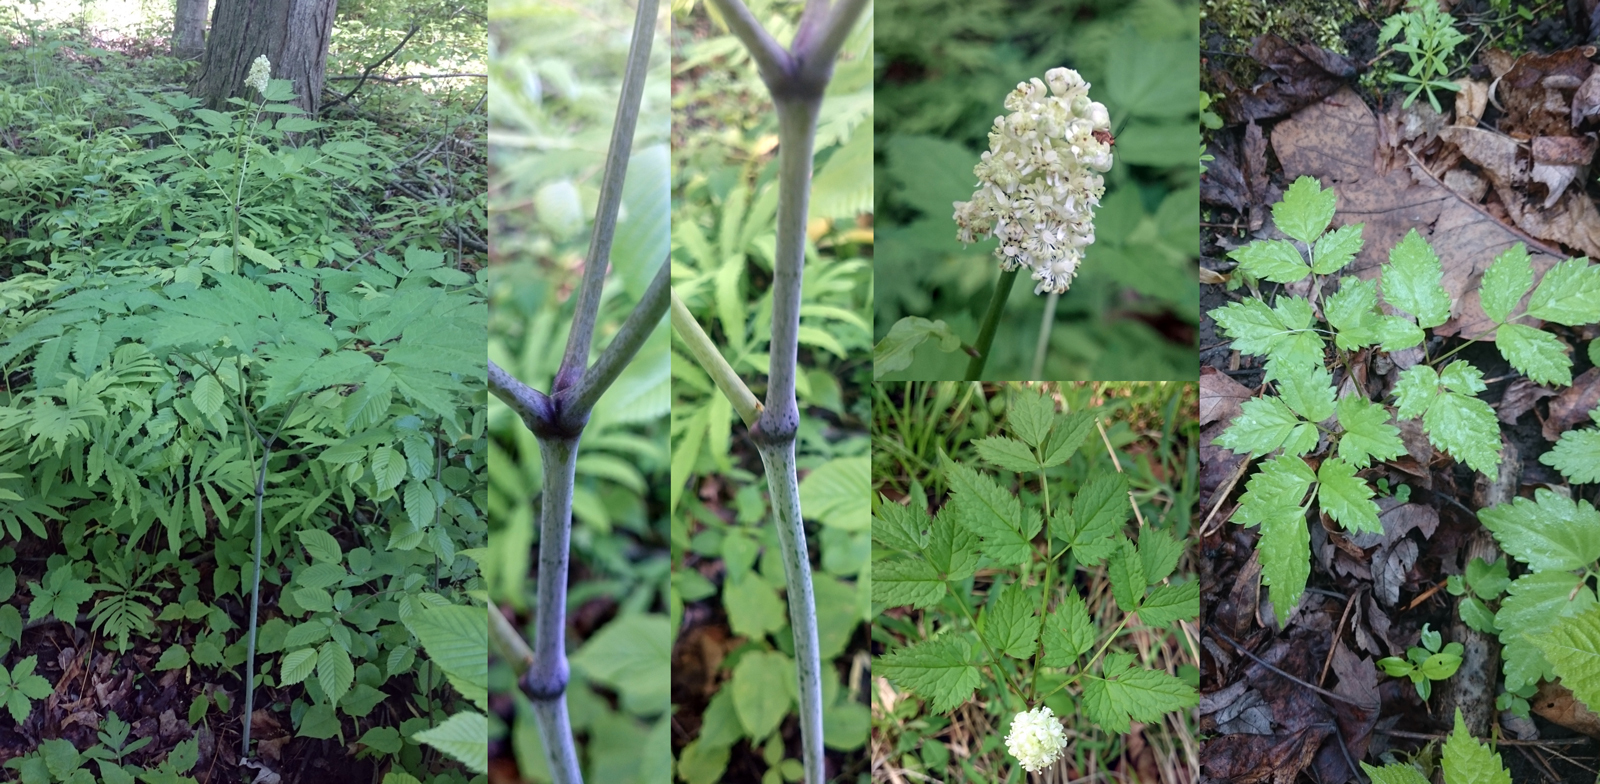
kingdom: Plantae
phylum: Tracheophyta
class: Magnoliopsida
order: Ranunculales
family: Ranunculaceae
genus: Actaea
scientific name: Actaea pachypoda
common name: Doll's-eyes
